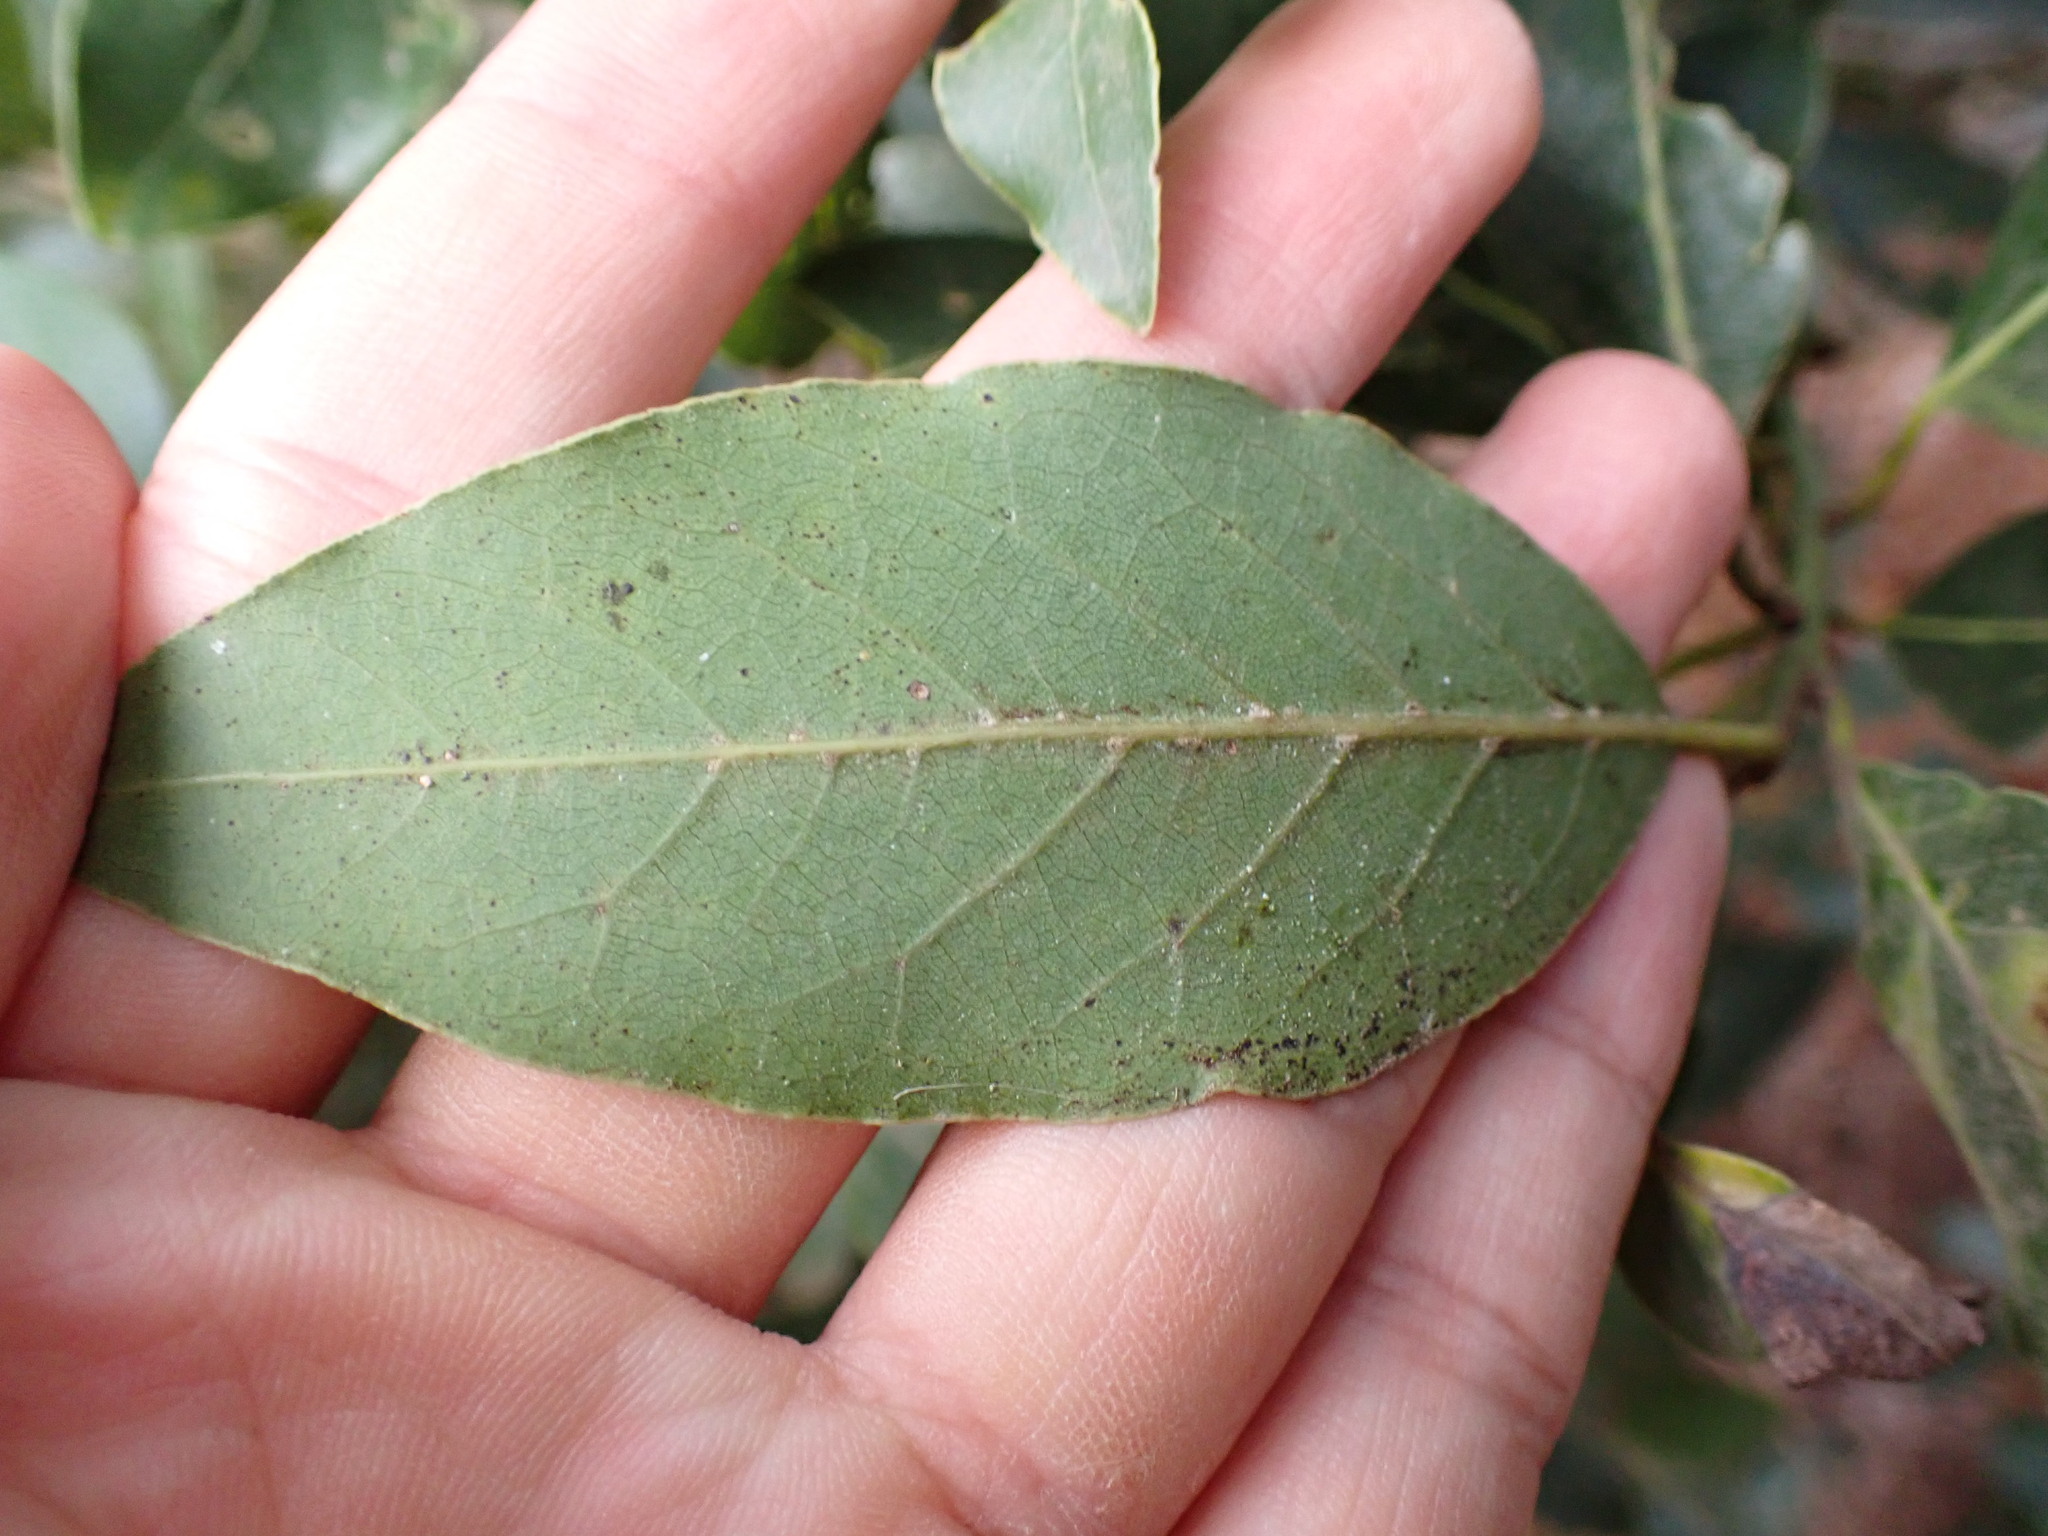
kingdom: Plantae
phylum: Tracheophyta
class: Magnoliopsida
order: Laurales
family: Lauraceae
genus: Laurus
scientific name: Laurus novocanariensis
